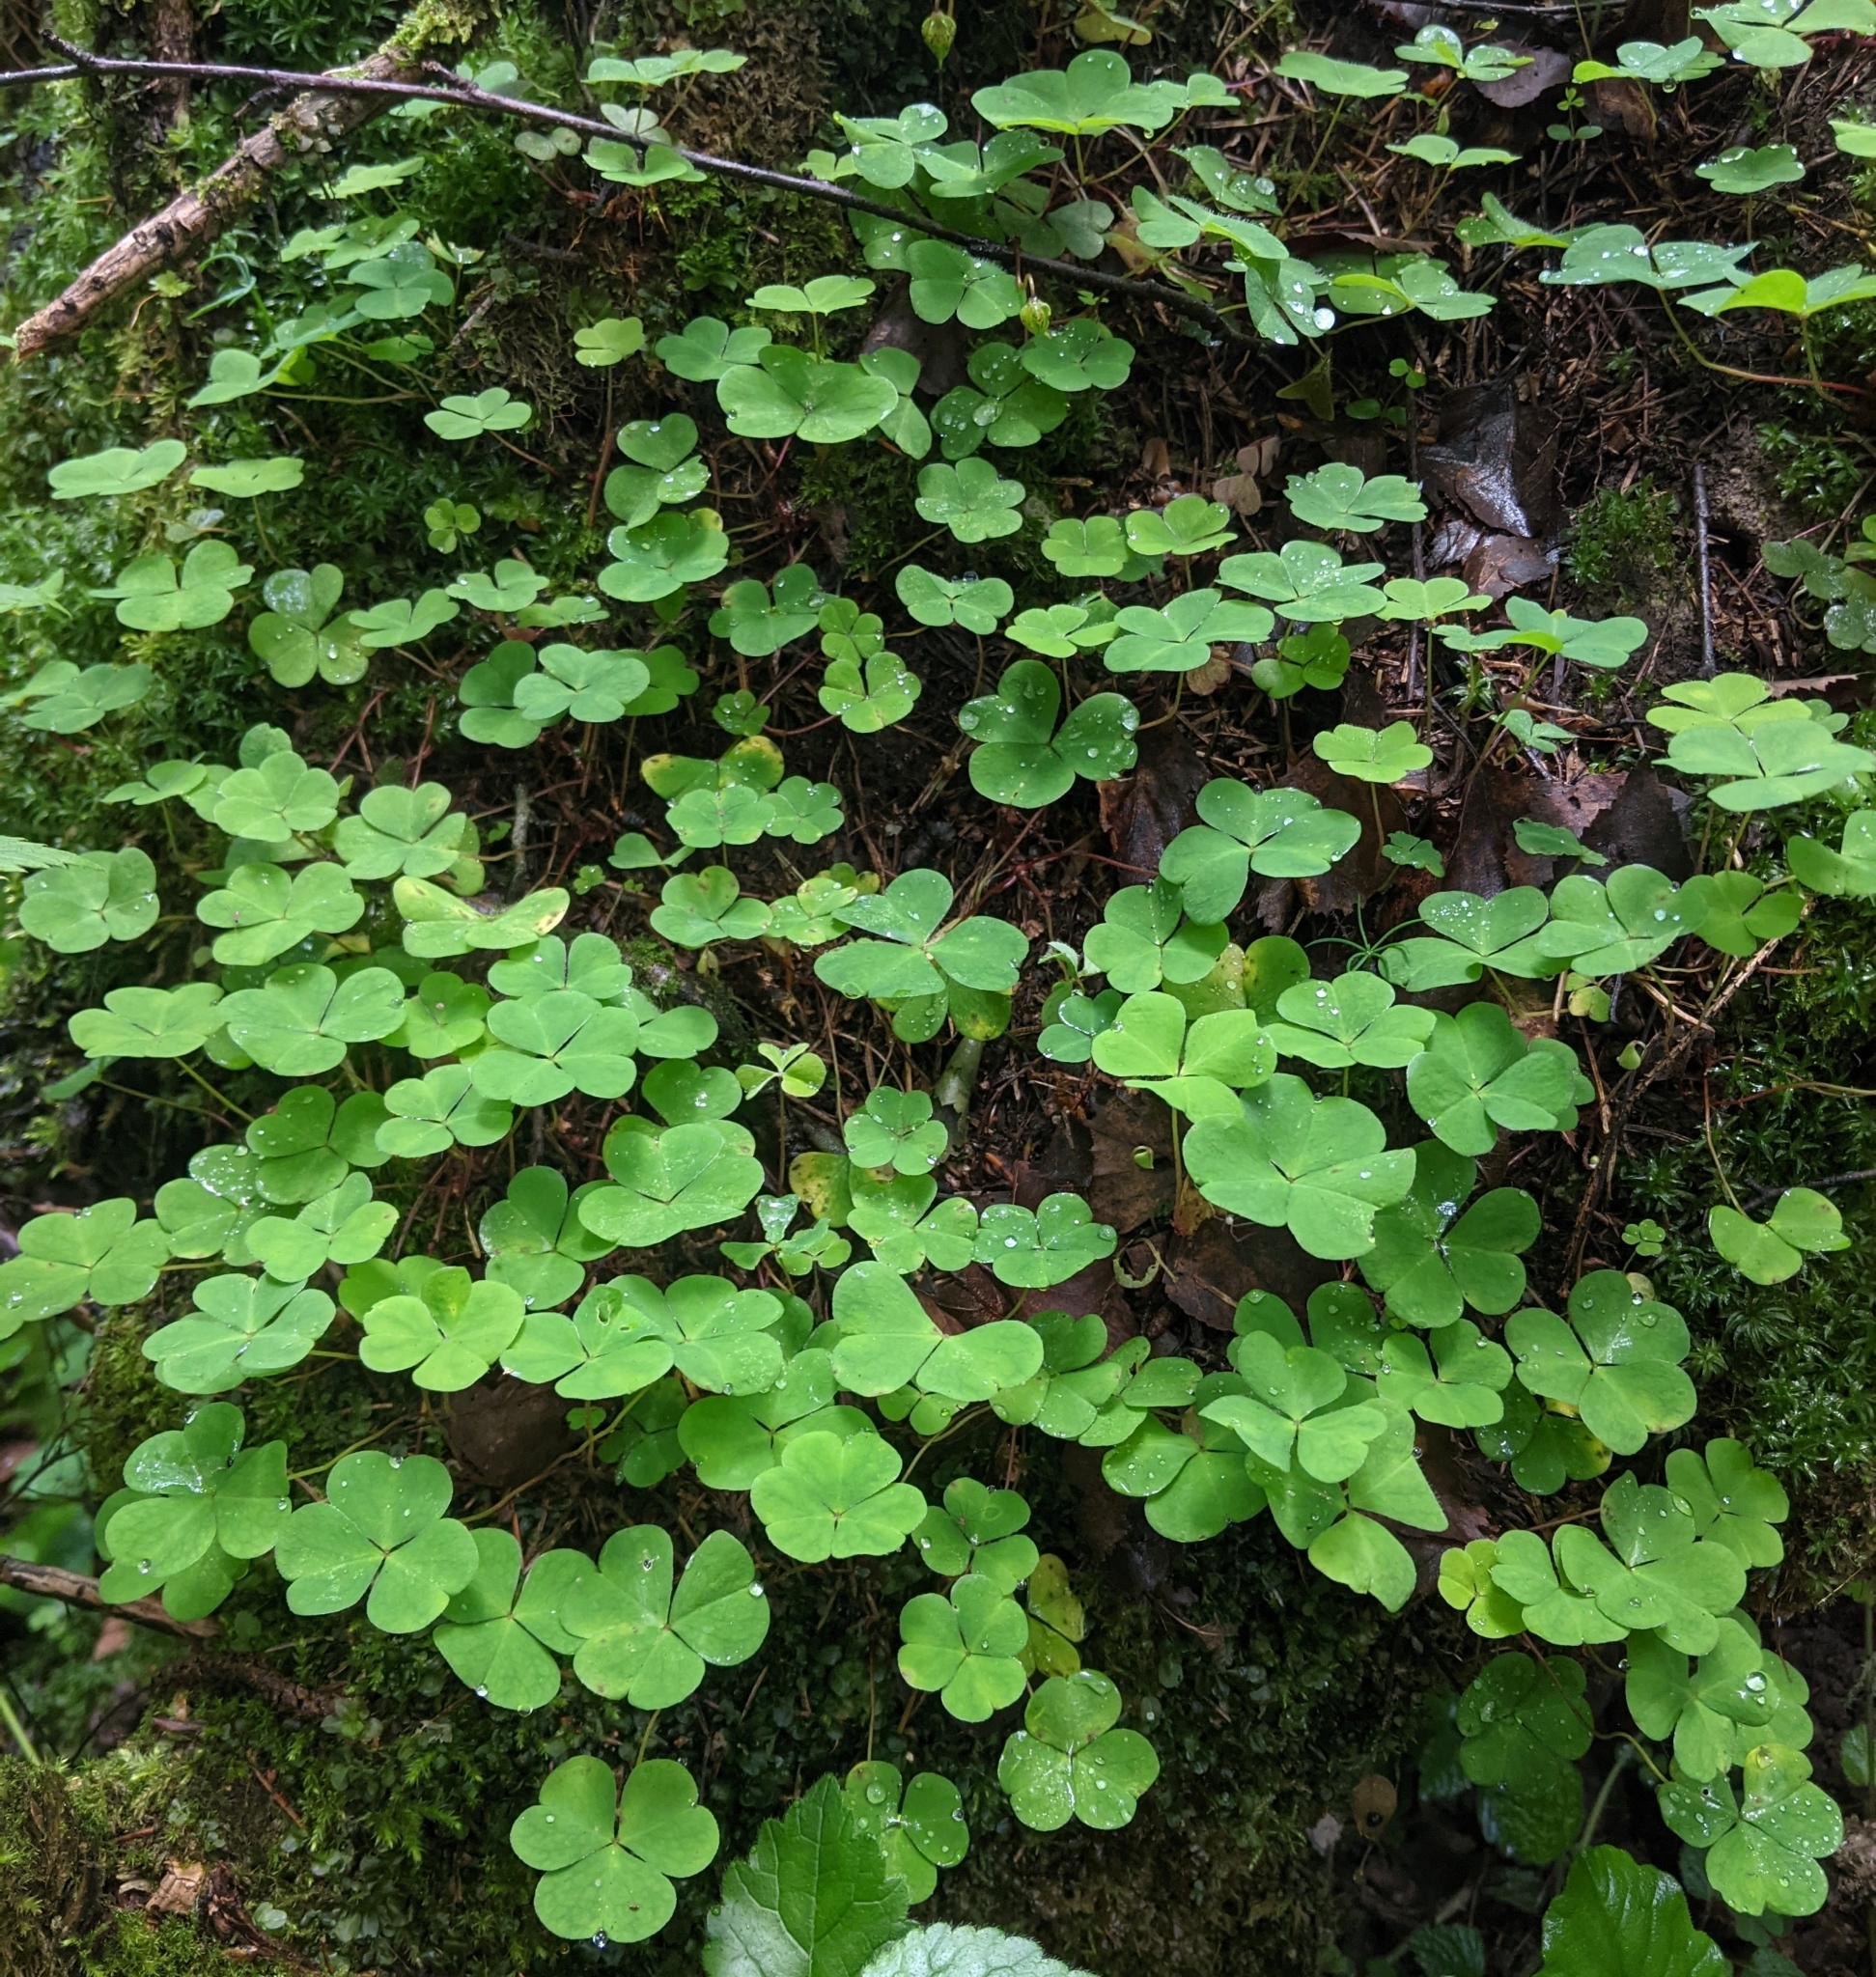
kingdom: Plantae
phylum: Tracheophyta
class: Magnoliopsida
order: Oxalidales
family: Oxalidaceae
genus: Oxalis
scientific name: Oxalis acetosella
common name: Wood-sorrel
